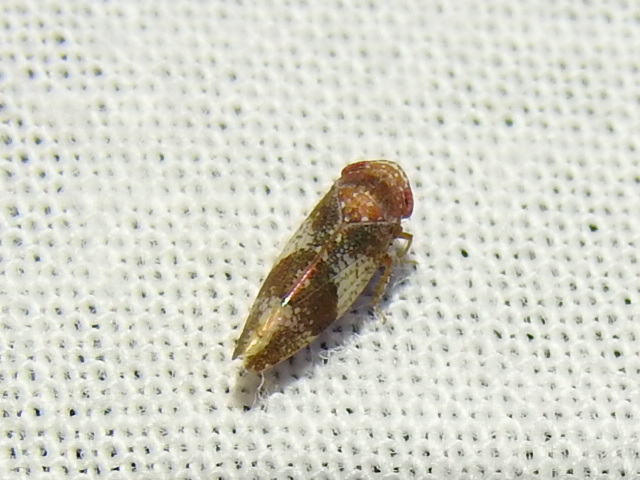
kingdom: Animalia
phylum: Arthropoda
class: Insecta
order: Hemiptera
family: Cicadellidae
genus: Norvellina
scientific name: Norvellina helenae
